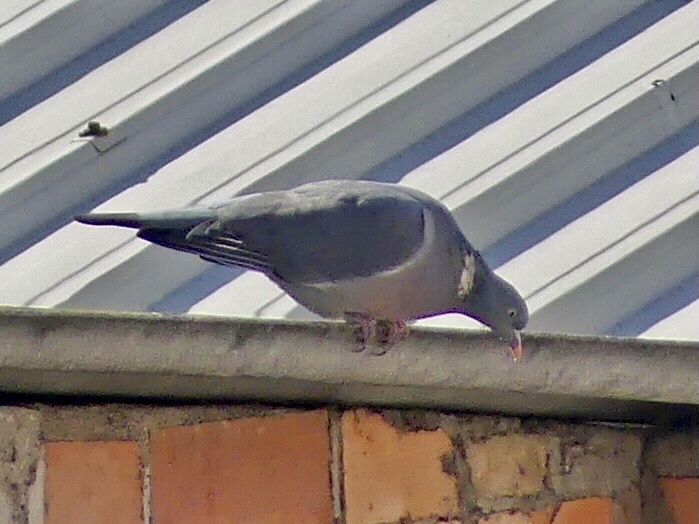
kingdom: Animalia
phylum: Chordata
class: Aves
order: Columbiformes
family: Columbidae
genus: Columba
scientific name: Columba palumbus
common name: Common wood pigeon
